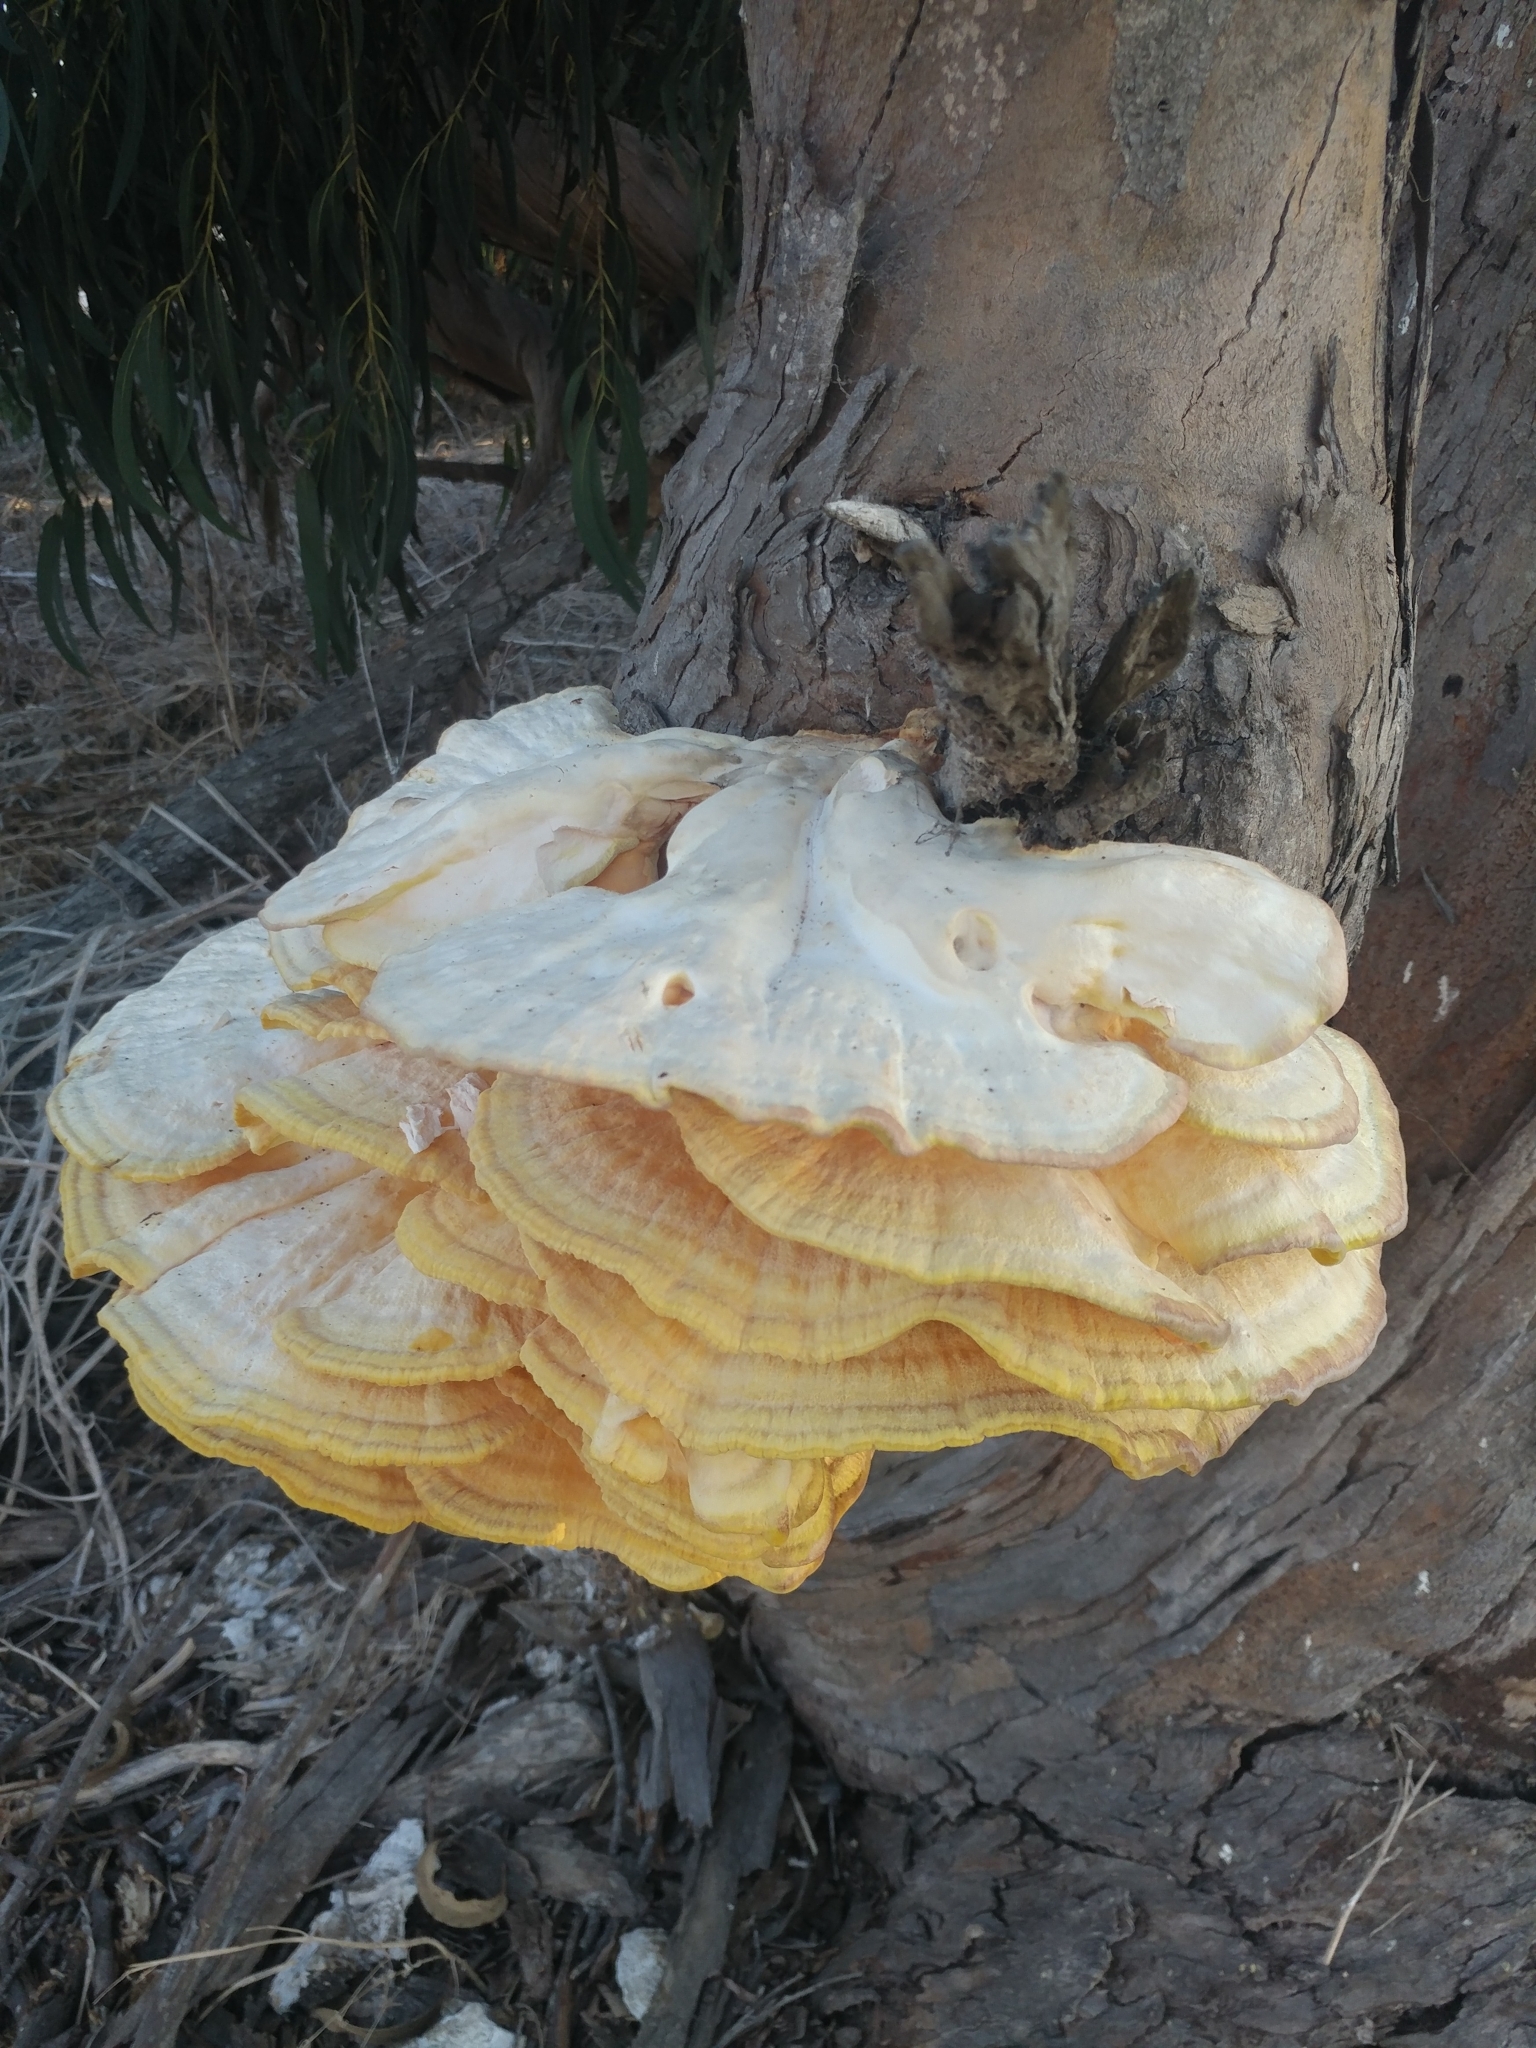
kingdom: Fungi
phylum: Basidiomycota
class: Agaricomycetes
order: Polyporales
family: Laetiporaceae
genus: Laetiporus
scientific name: Laetiporus gilbertsonii
